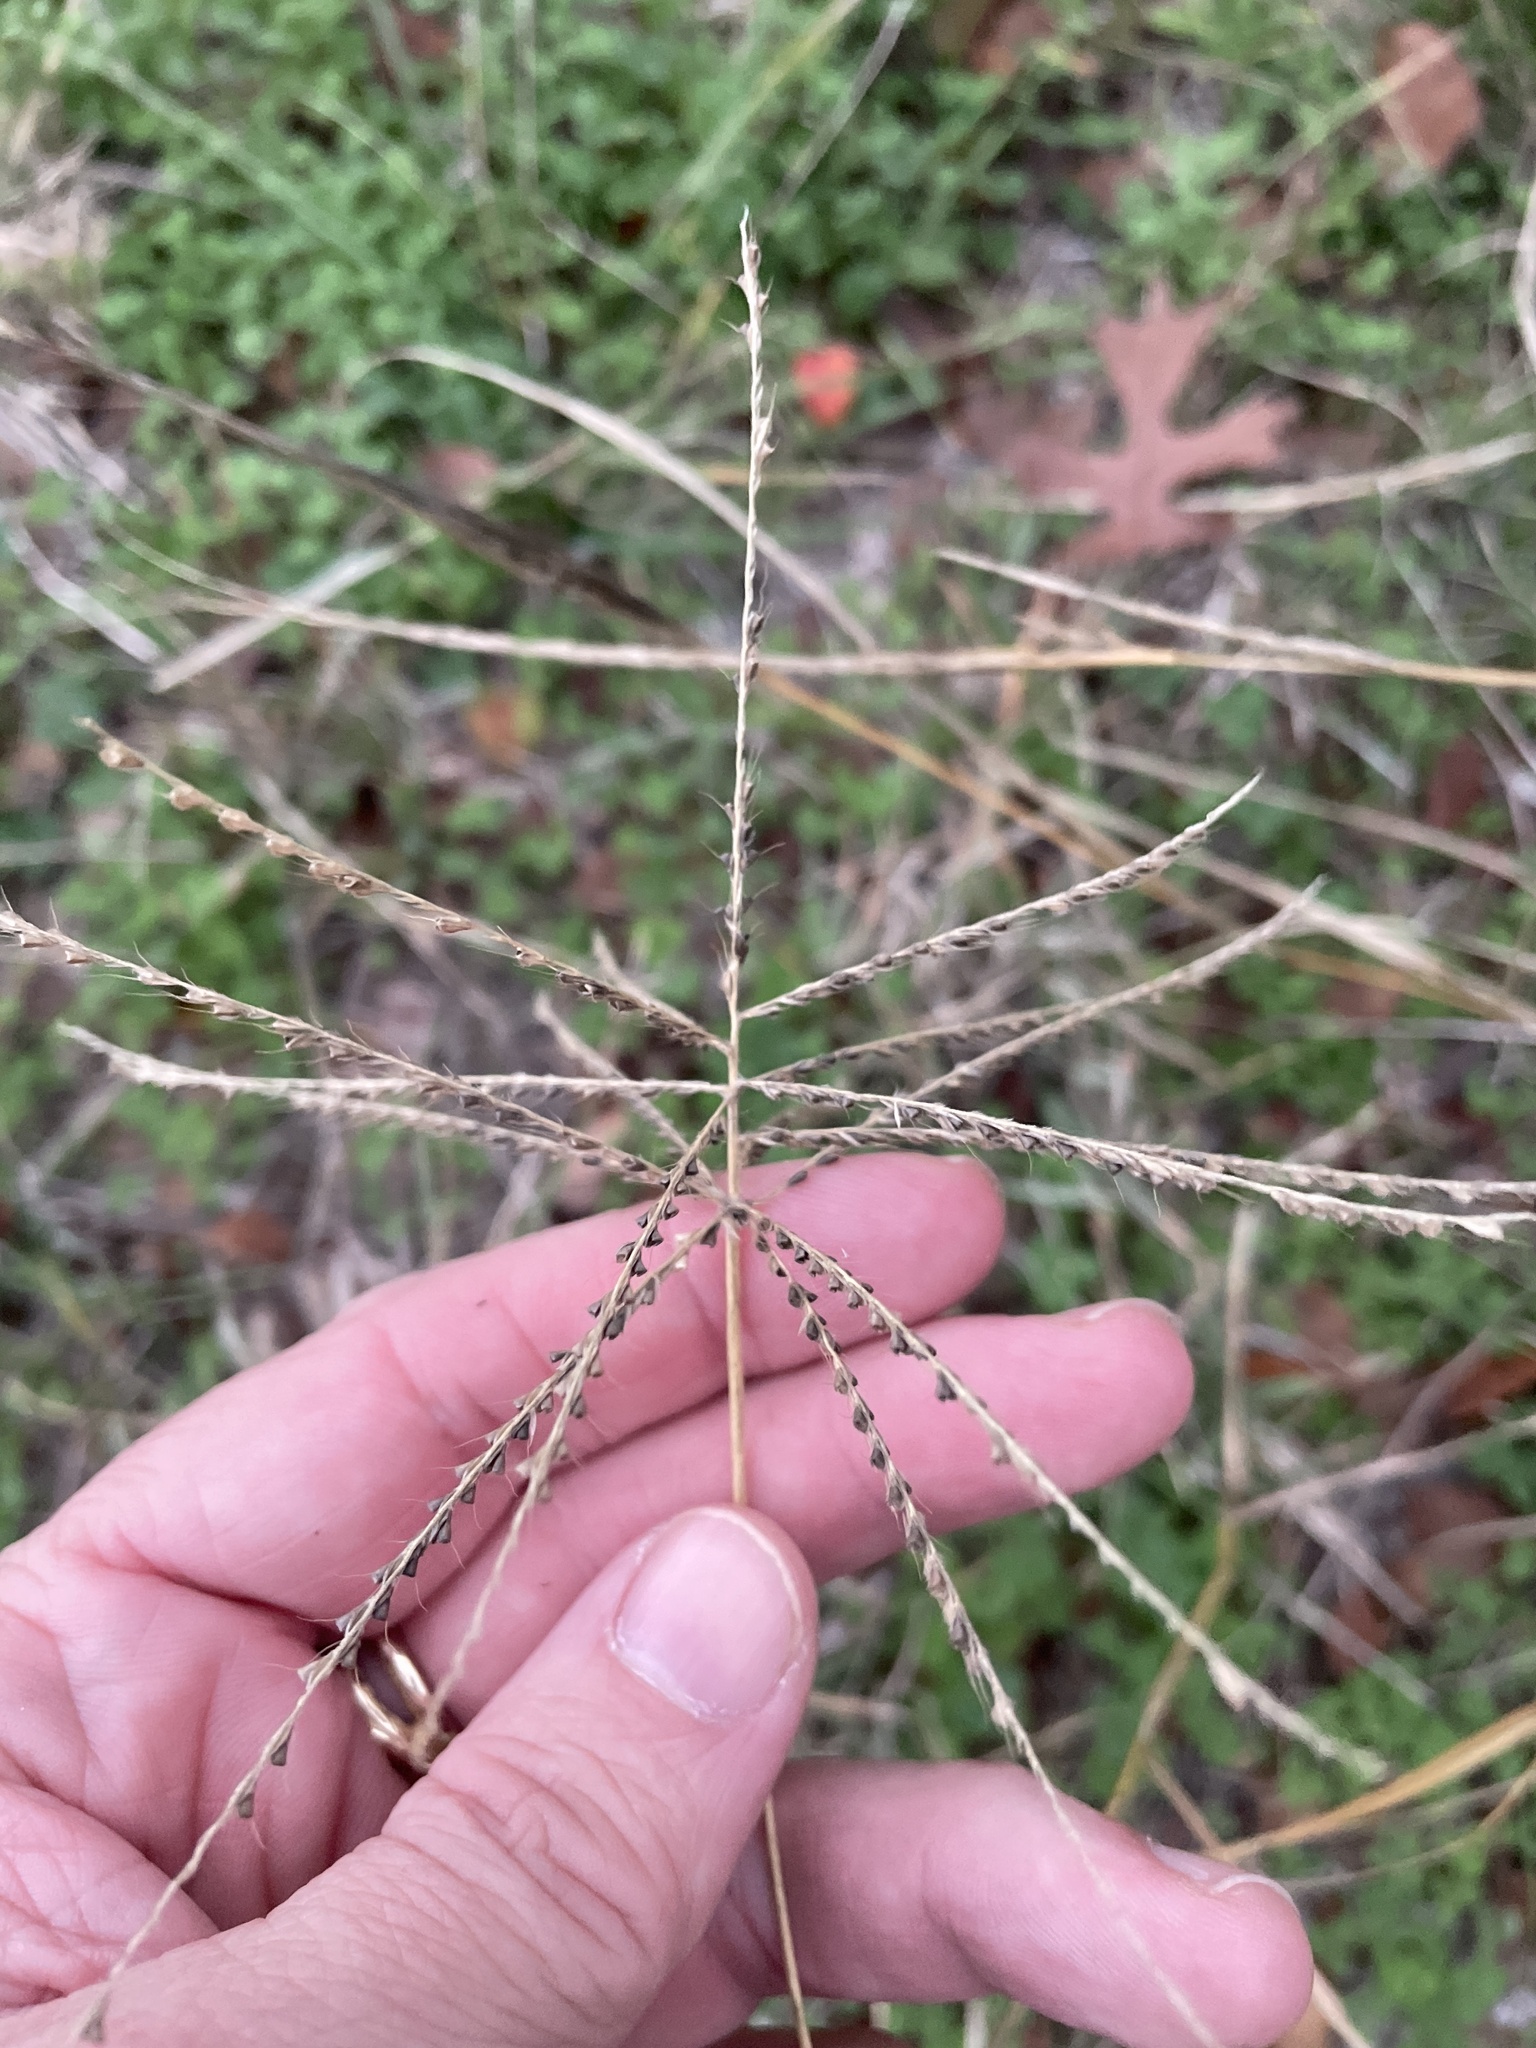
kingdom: Plantae
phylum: Tracheophyta
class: Liliopsida
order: Poales
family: Poaceae
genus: Chloris
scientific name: Chloris subdolichostachya
